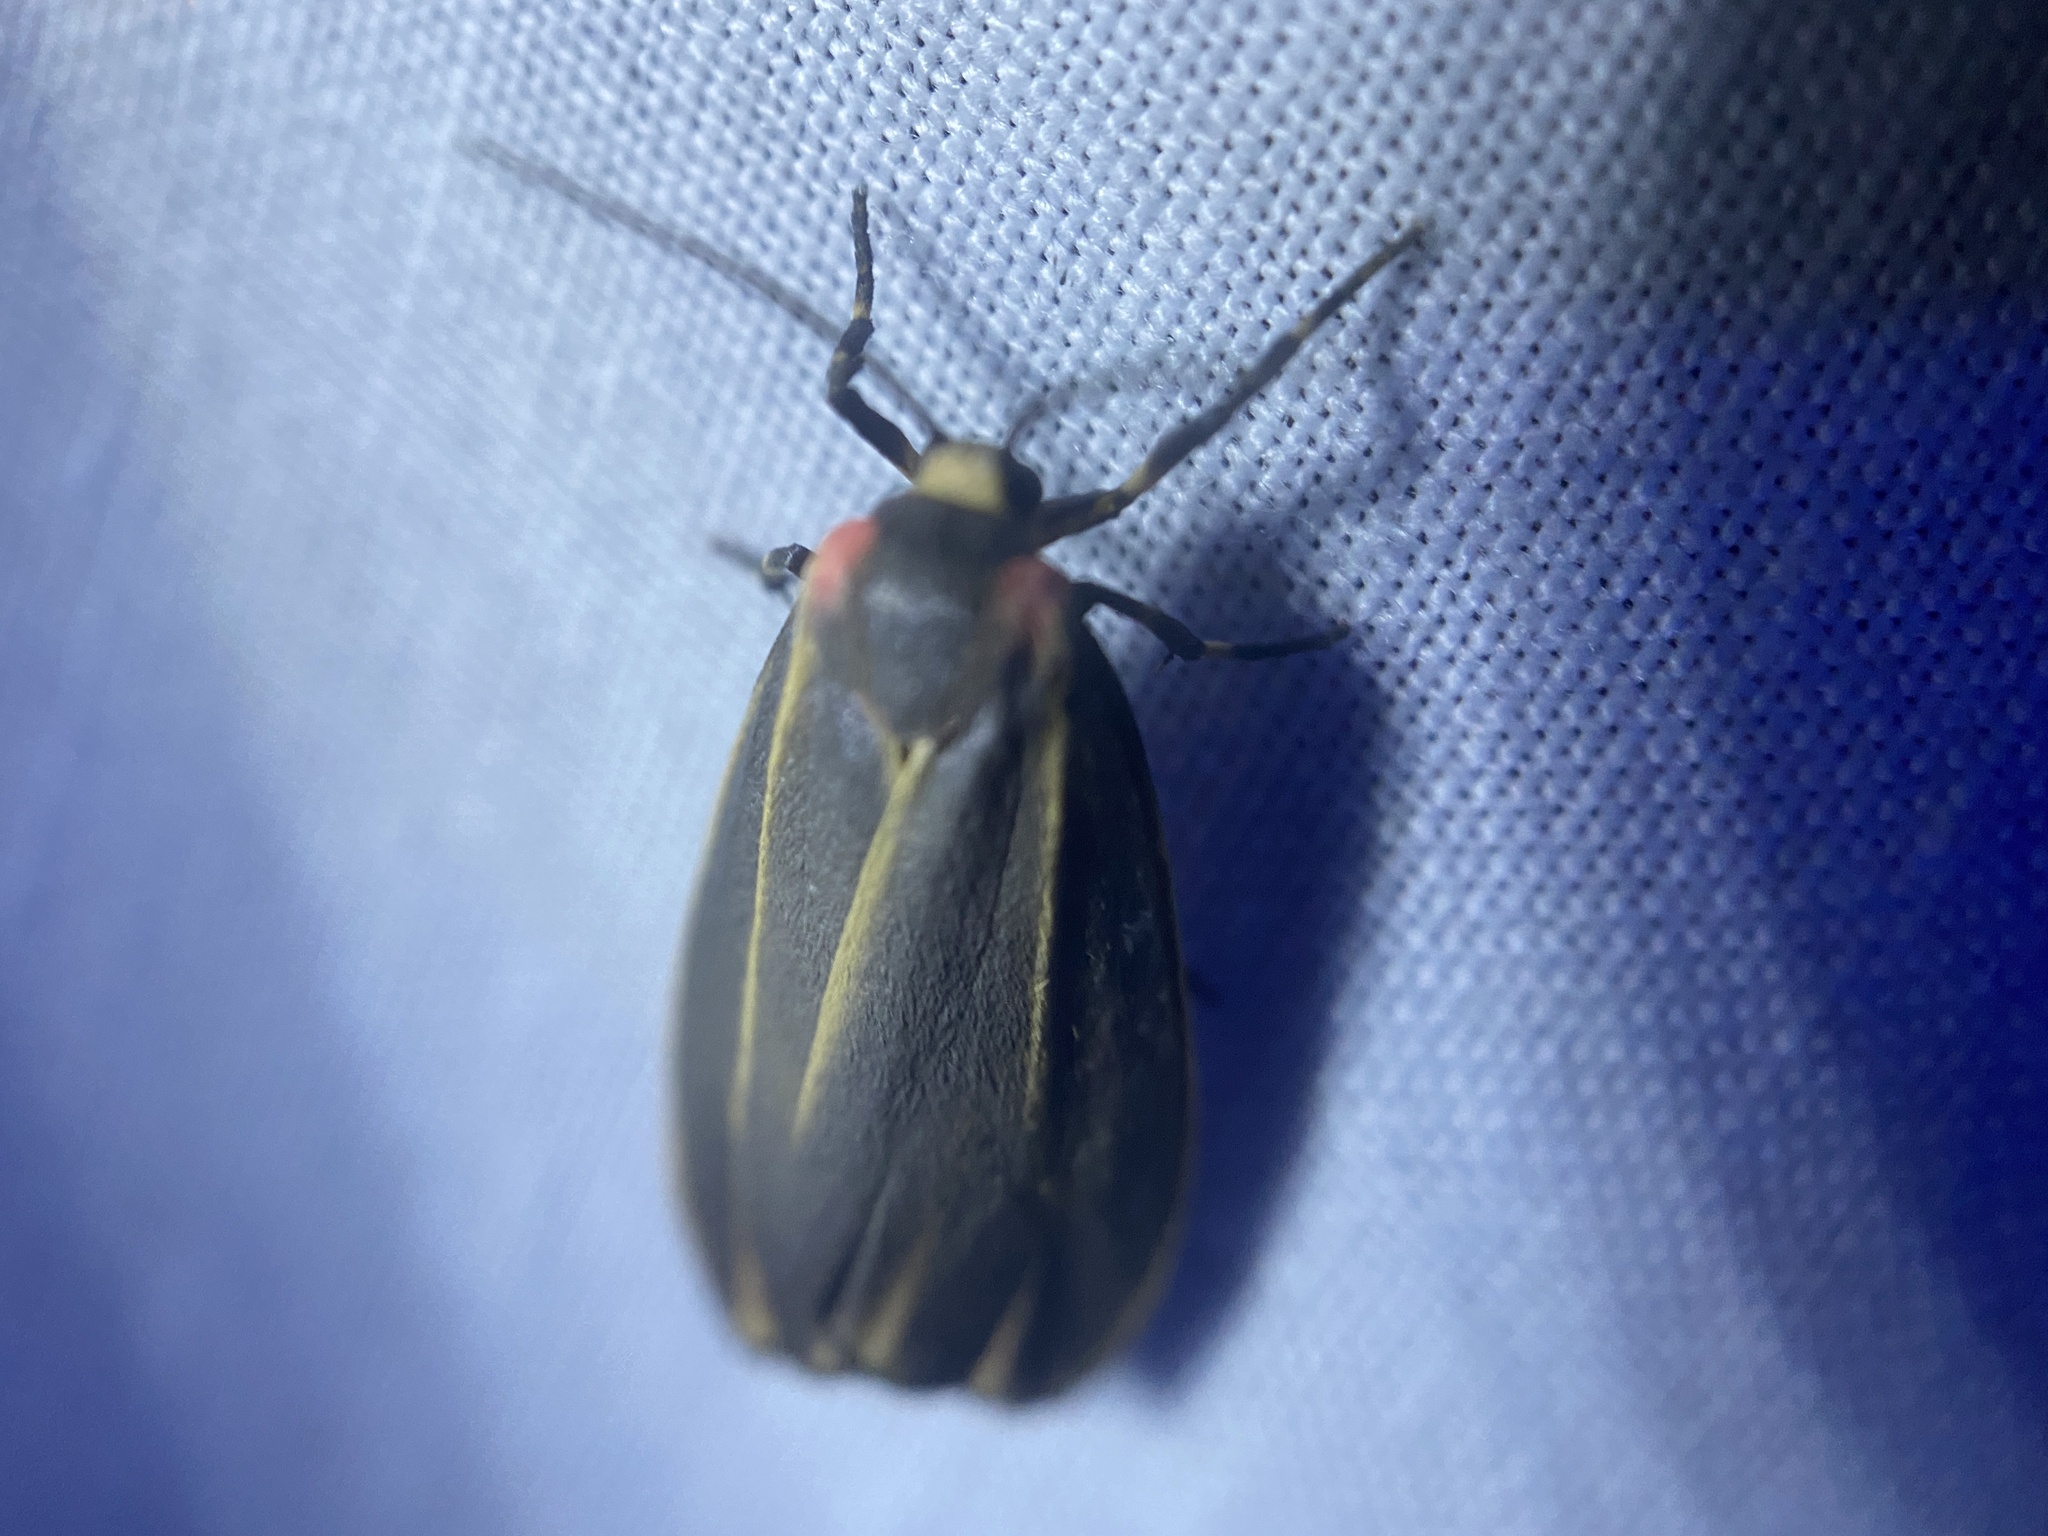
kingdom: Animalia
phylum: Arthropoda
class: Insecta
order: Lepidoptera
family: Erebidae
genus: Hypoprepia
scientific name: Hypoprepia fucosa
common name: Painted lichen moth
